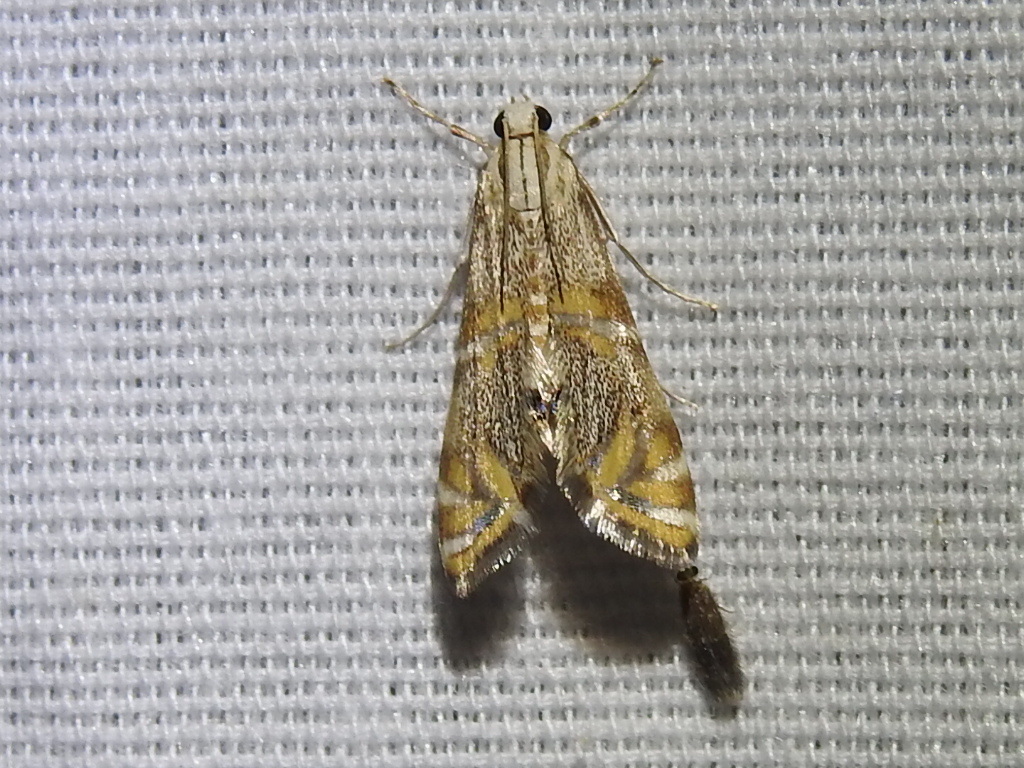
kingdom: Animalia
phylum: Arthropoda
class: Insecta
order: Lepidoptera
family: Crambidae
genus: Petrophila
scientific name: Petrophila cappsi
